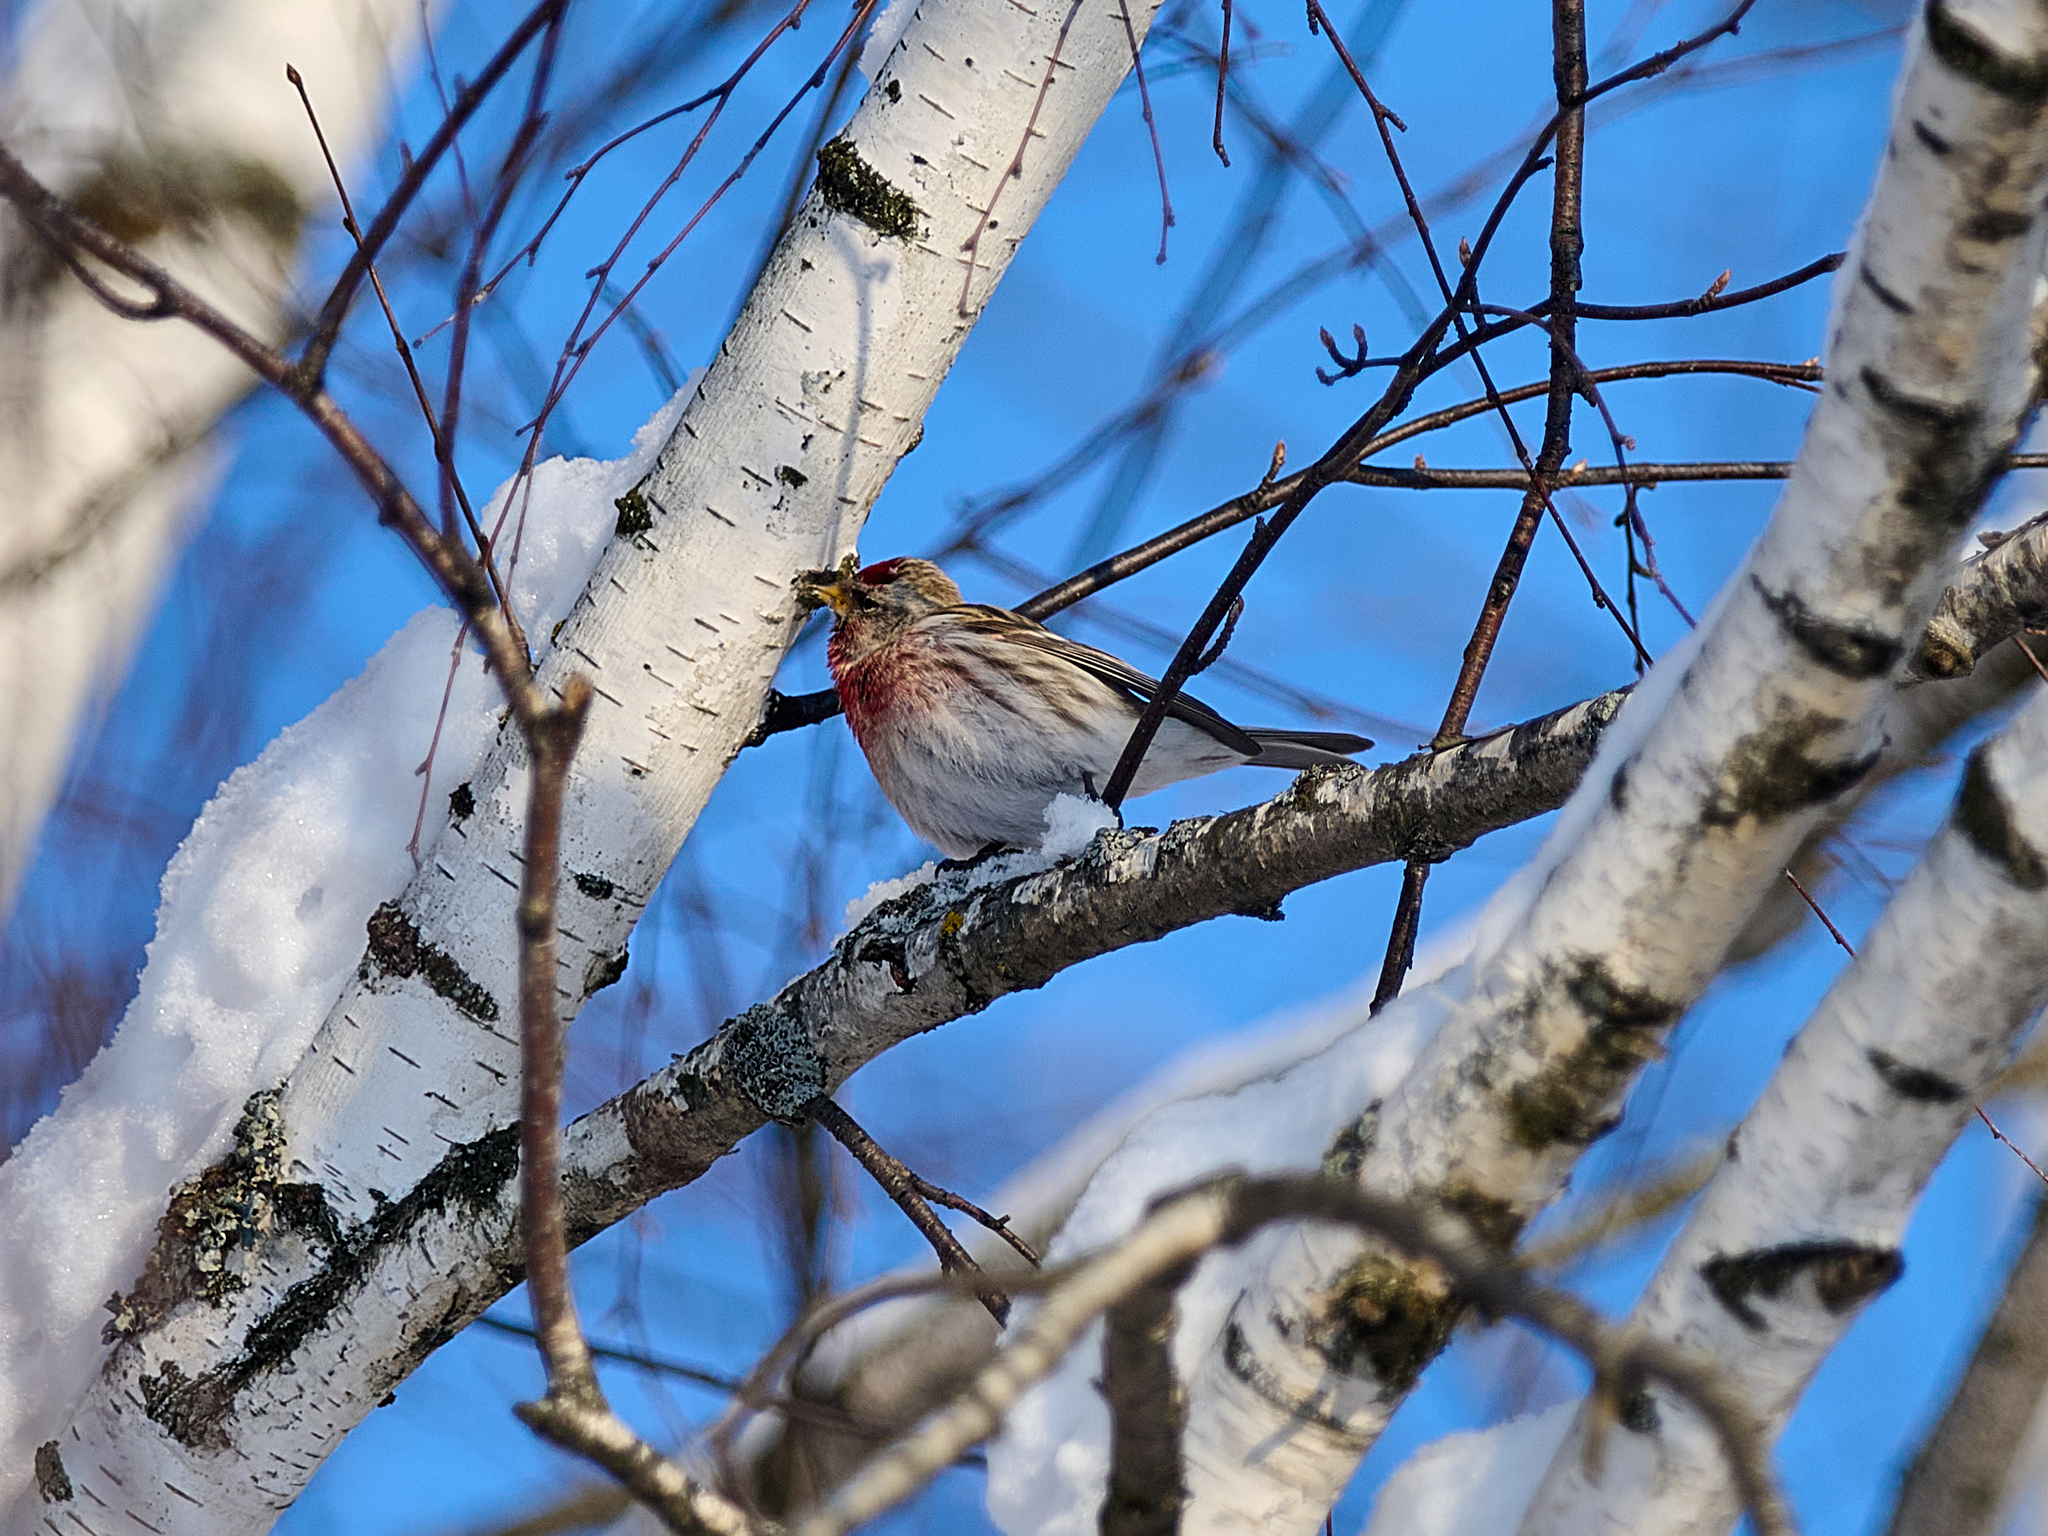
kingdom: Animalia
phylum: Chordata
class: Aves
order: Passeriformes
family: Fringillidae
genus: Acanthis
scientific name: Acanthis flammea
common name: Common redpoll
